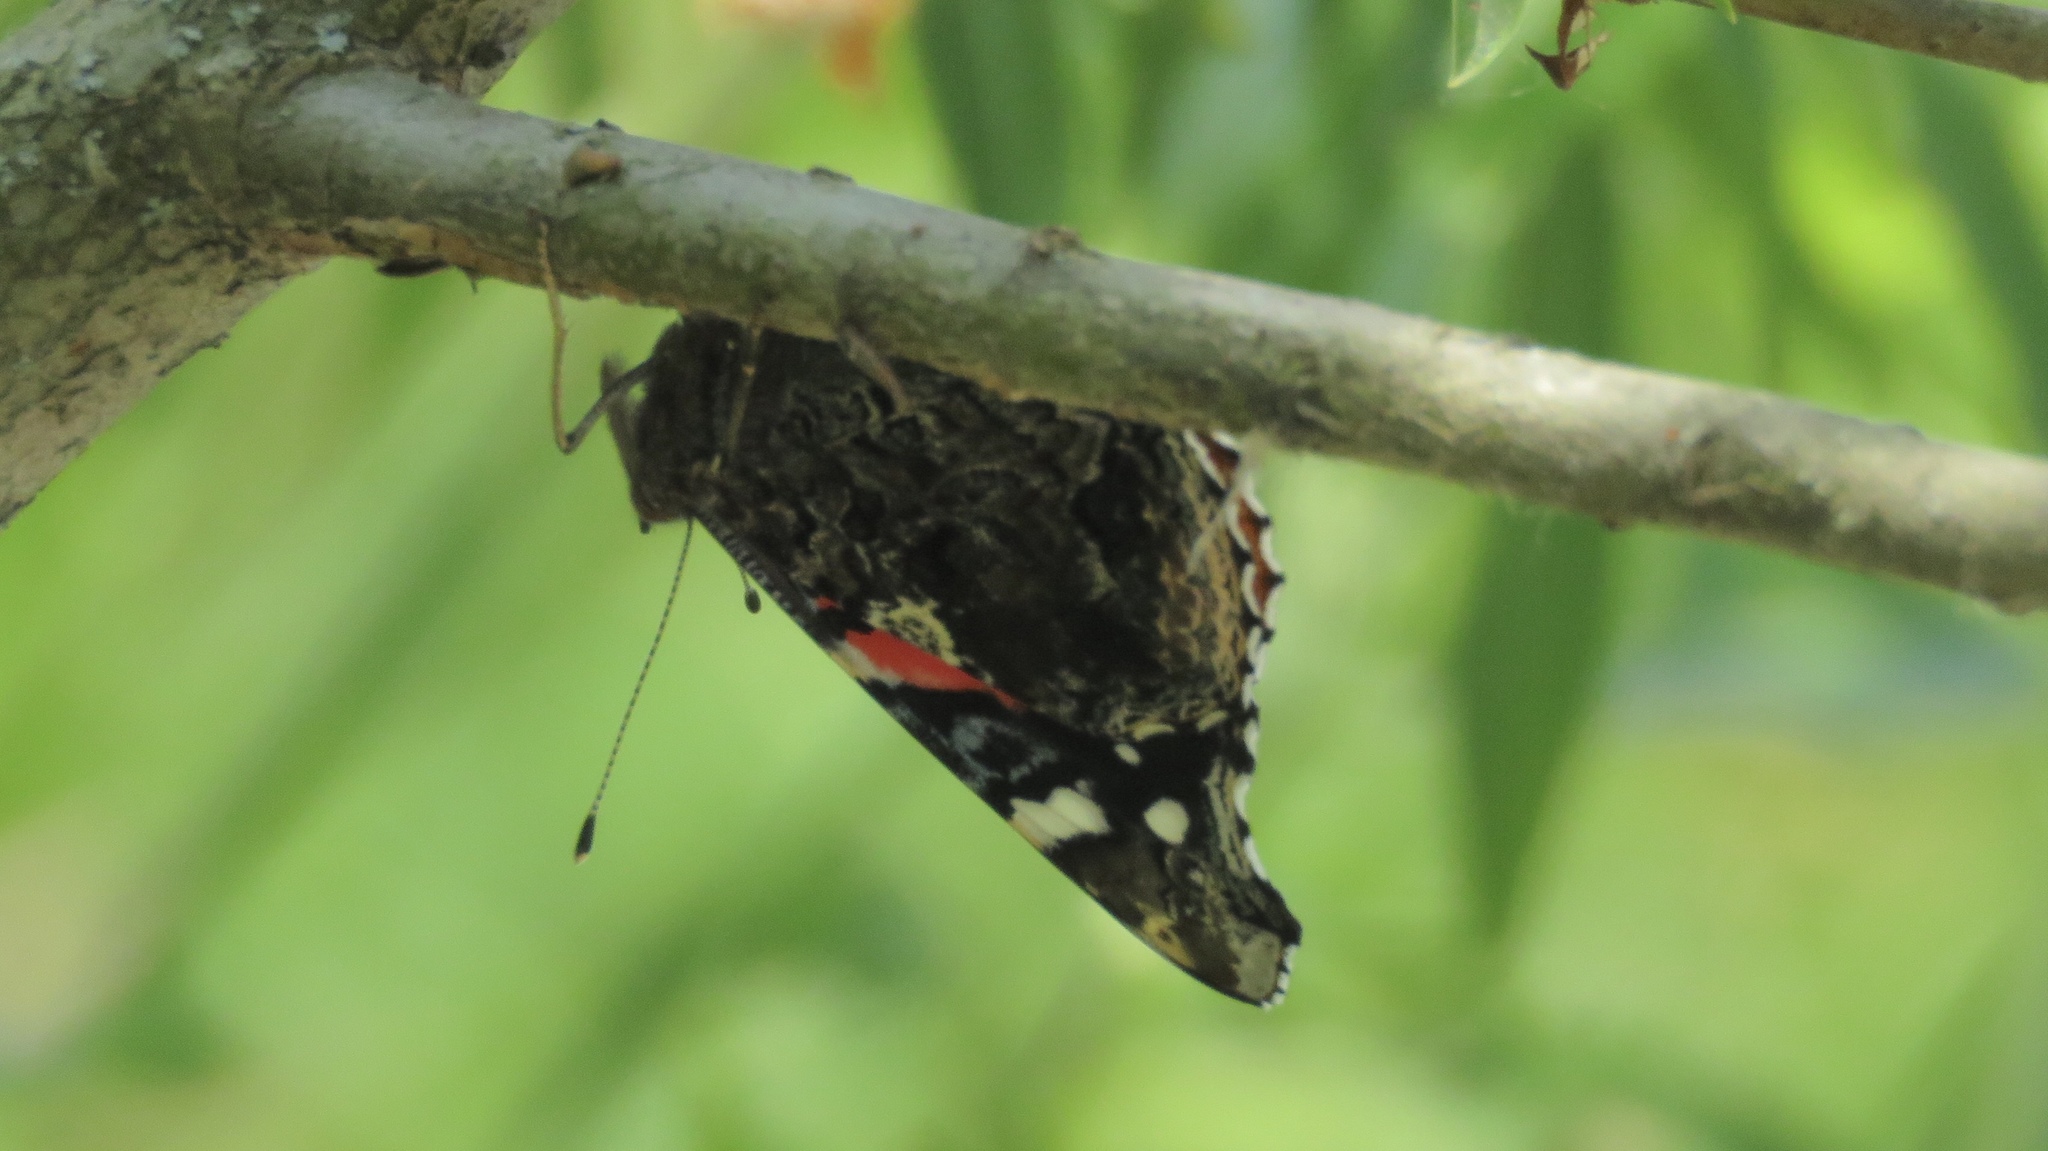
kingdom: Animalia
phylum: Arthropoda
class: Insecta
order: Lepidoptera
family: Nymphalidae
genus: Vanessa
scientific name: Vanessa atalanta
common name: Red admiral
